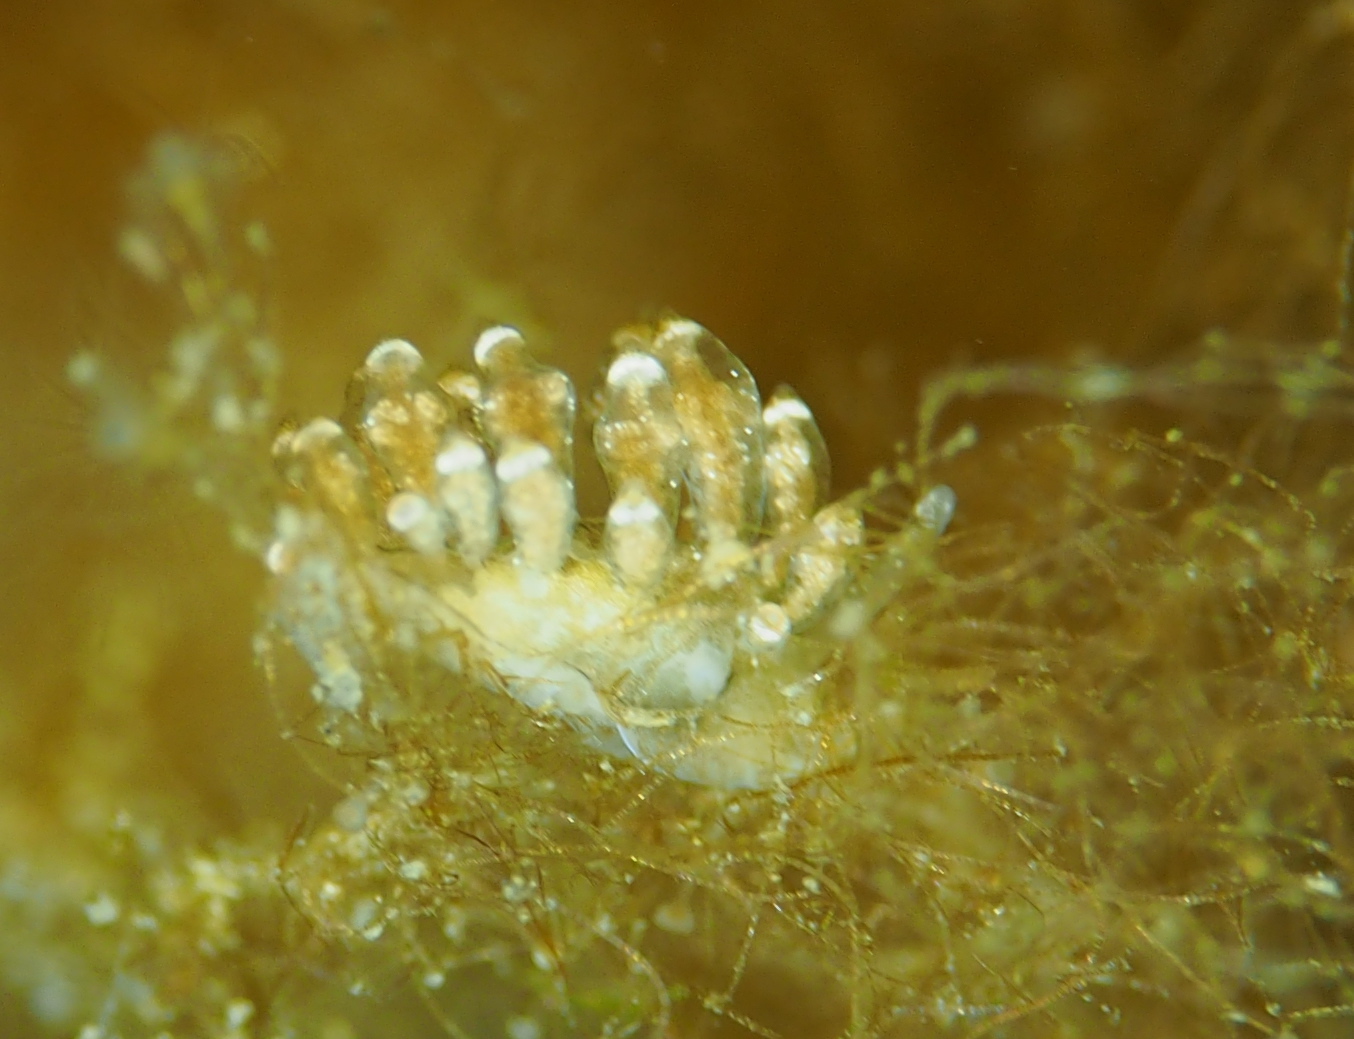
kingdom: Animalia
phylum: Mollusca
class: Gastropoda
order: Nudibranchia
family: Eubranchidae
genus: Eubranchus
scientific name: Eubranchus exiguus
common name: Balloon aeolis
